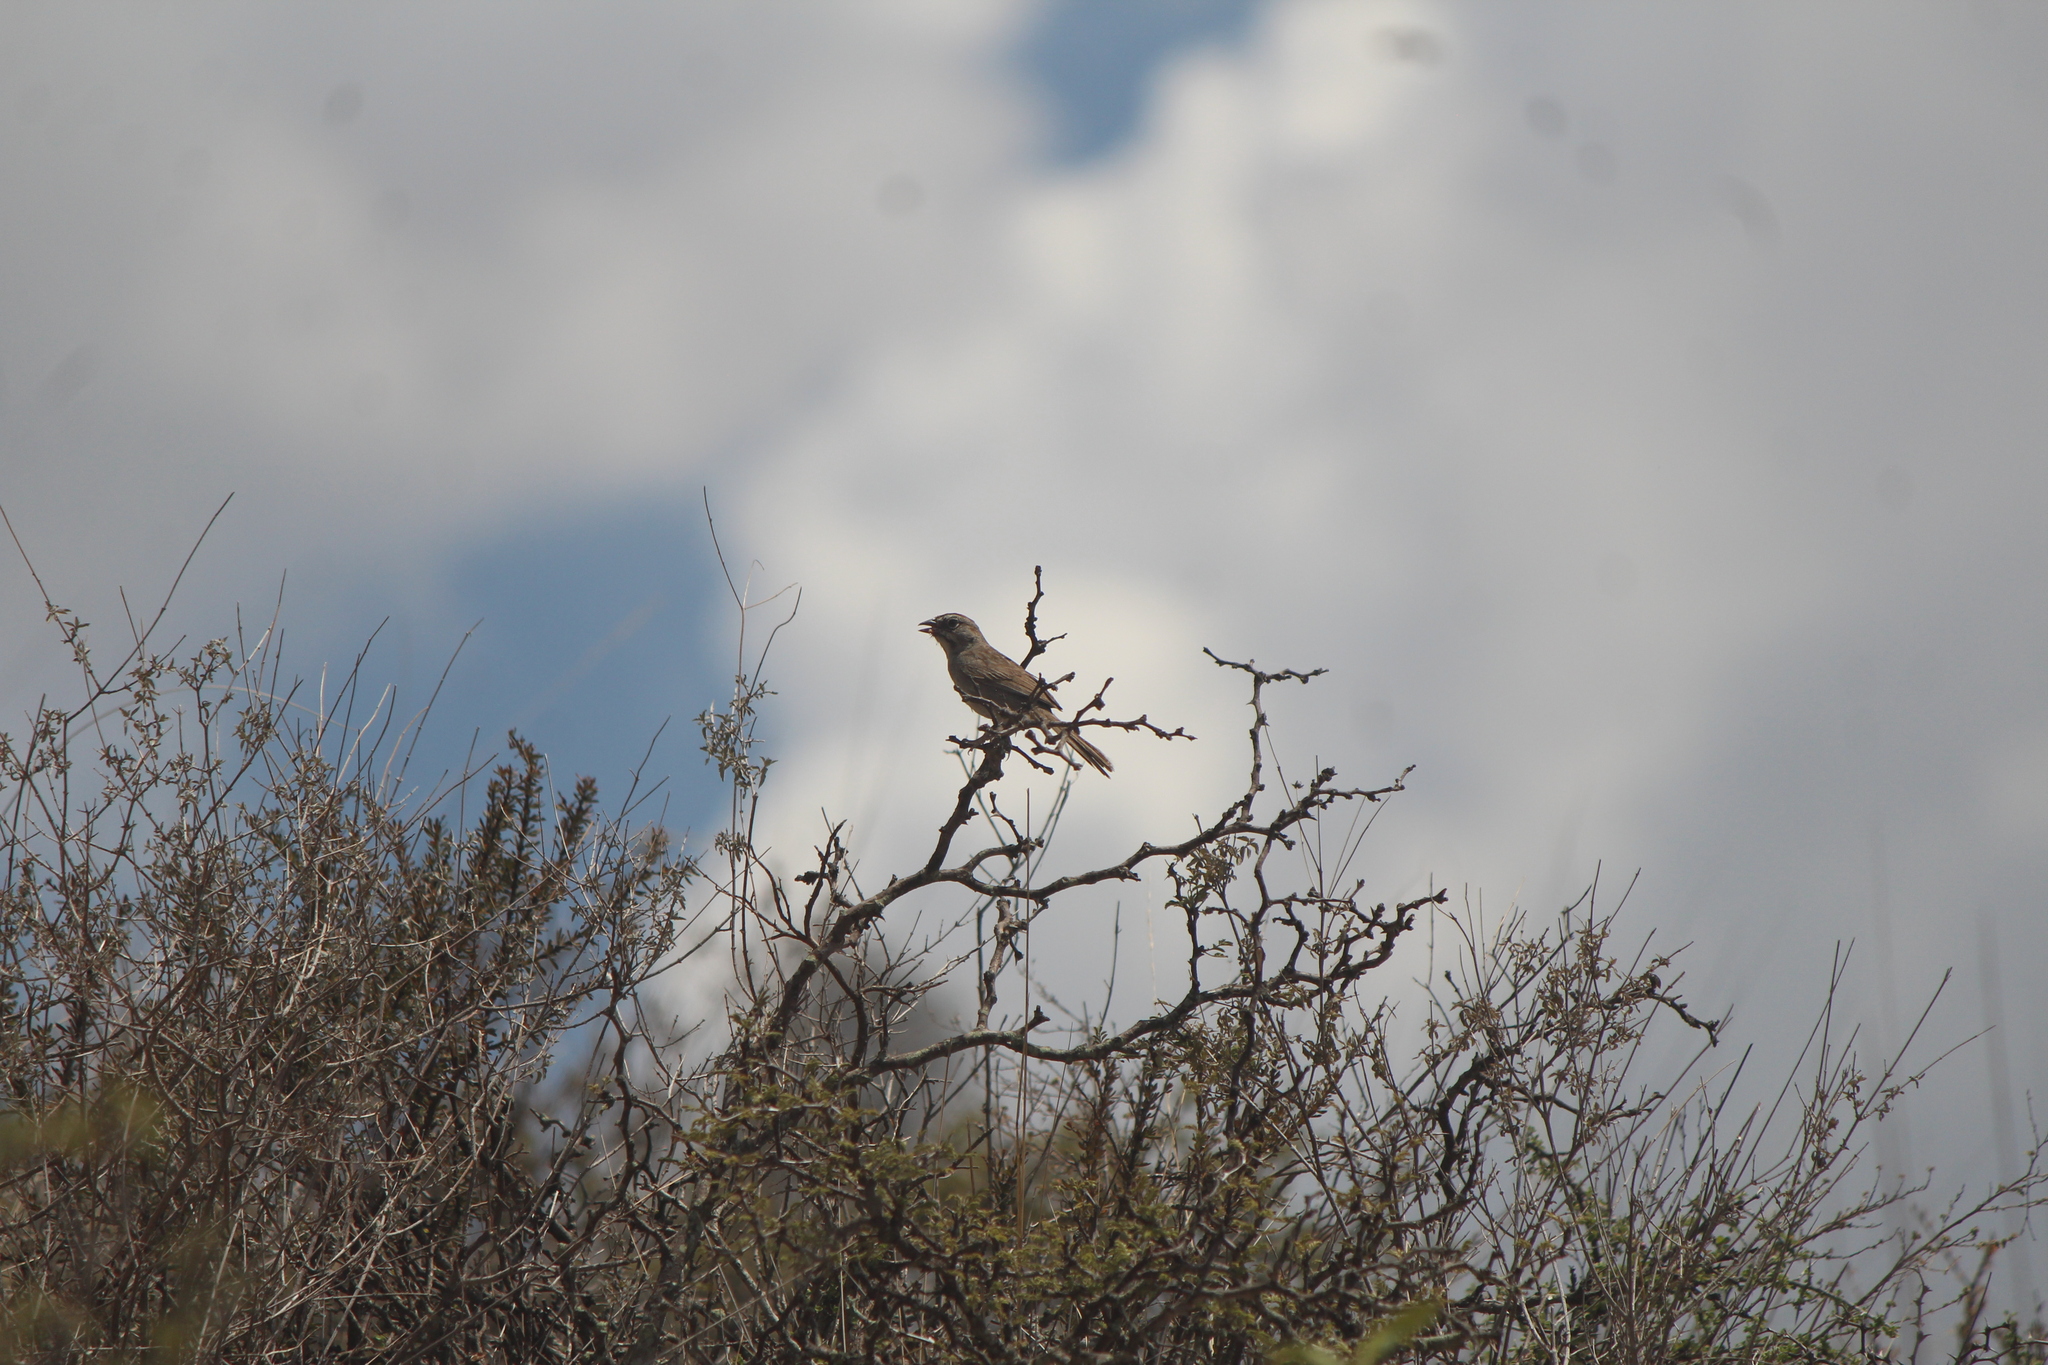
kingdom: Animalia
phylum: Chordata
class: Aves
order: Passeriformes
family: Passerellidae
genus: Aimophila
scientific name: Aimophila ruficeps
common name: Rufous-crowned sparrow
